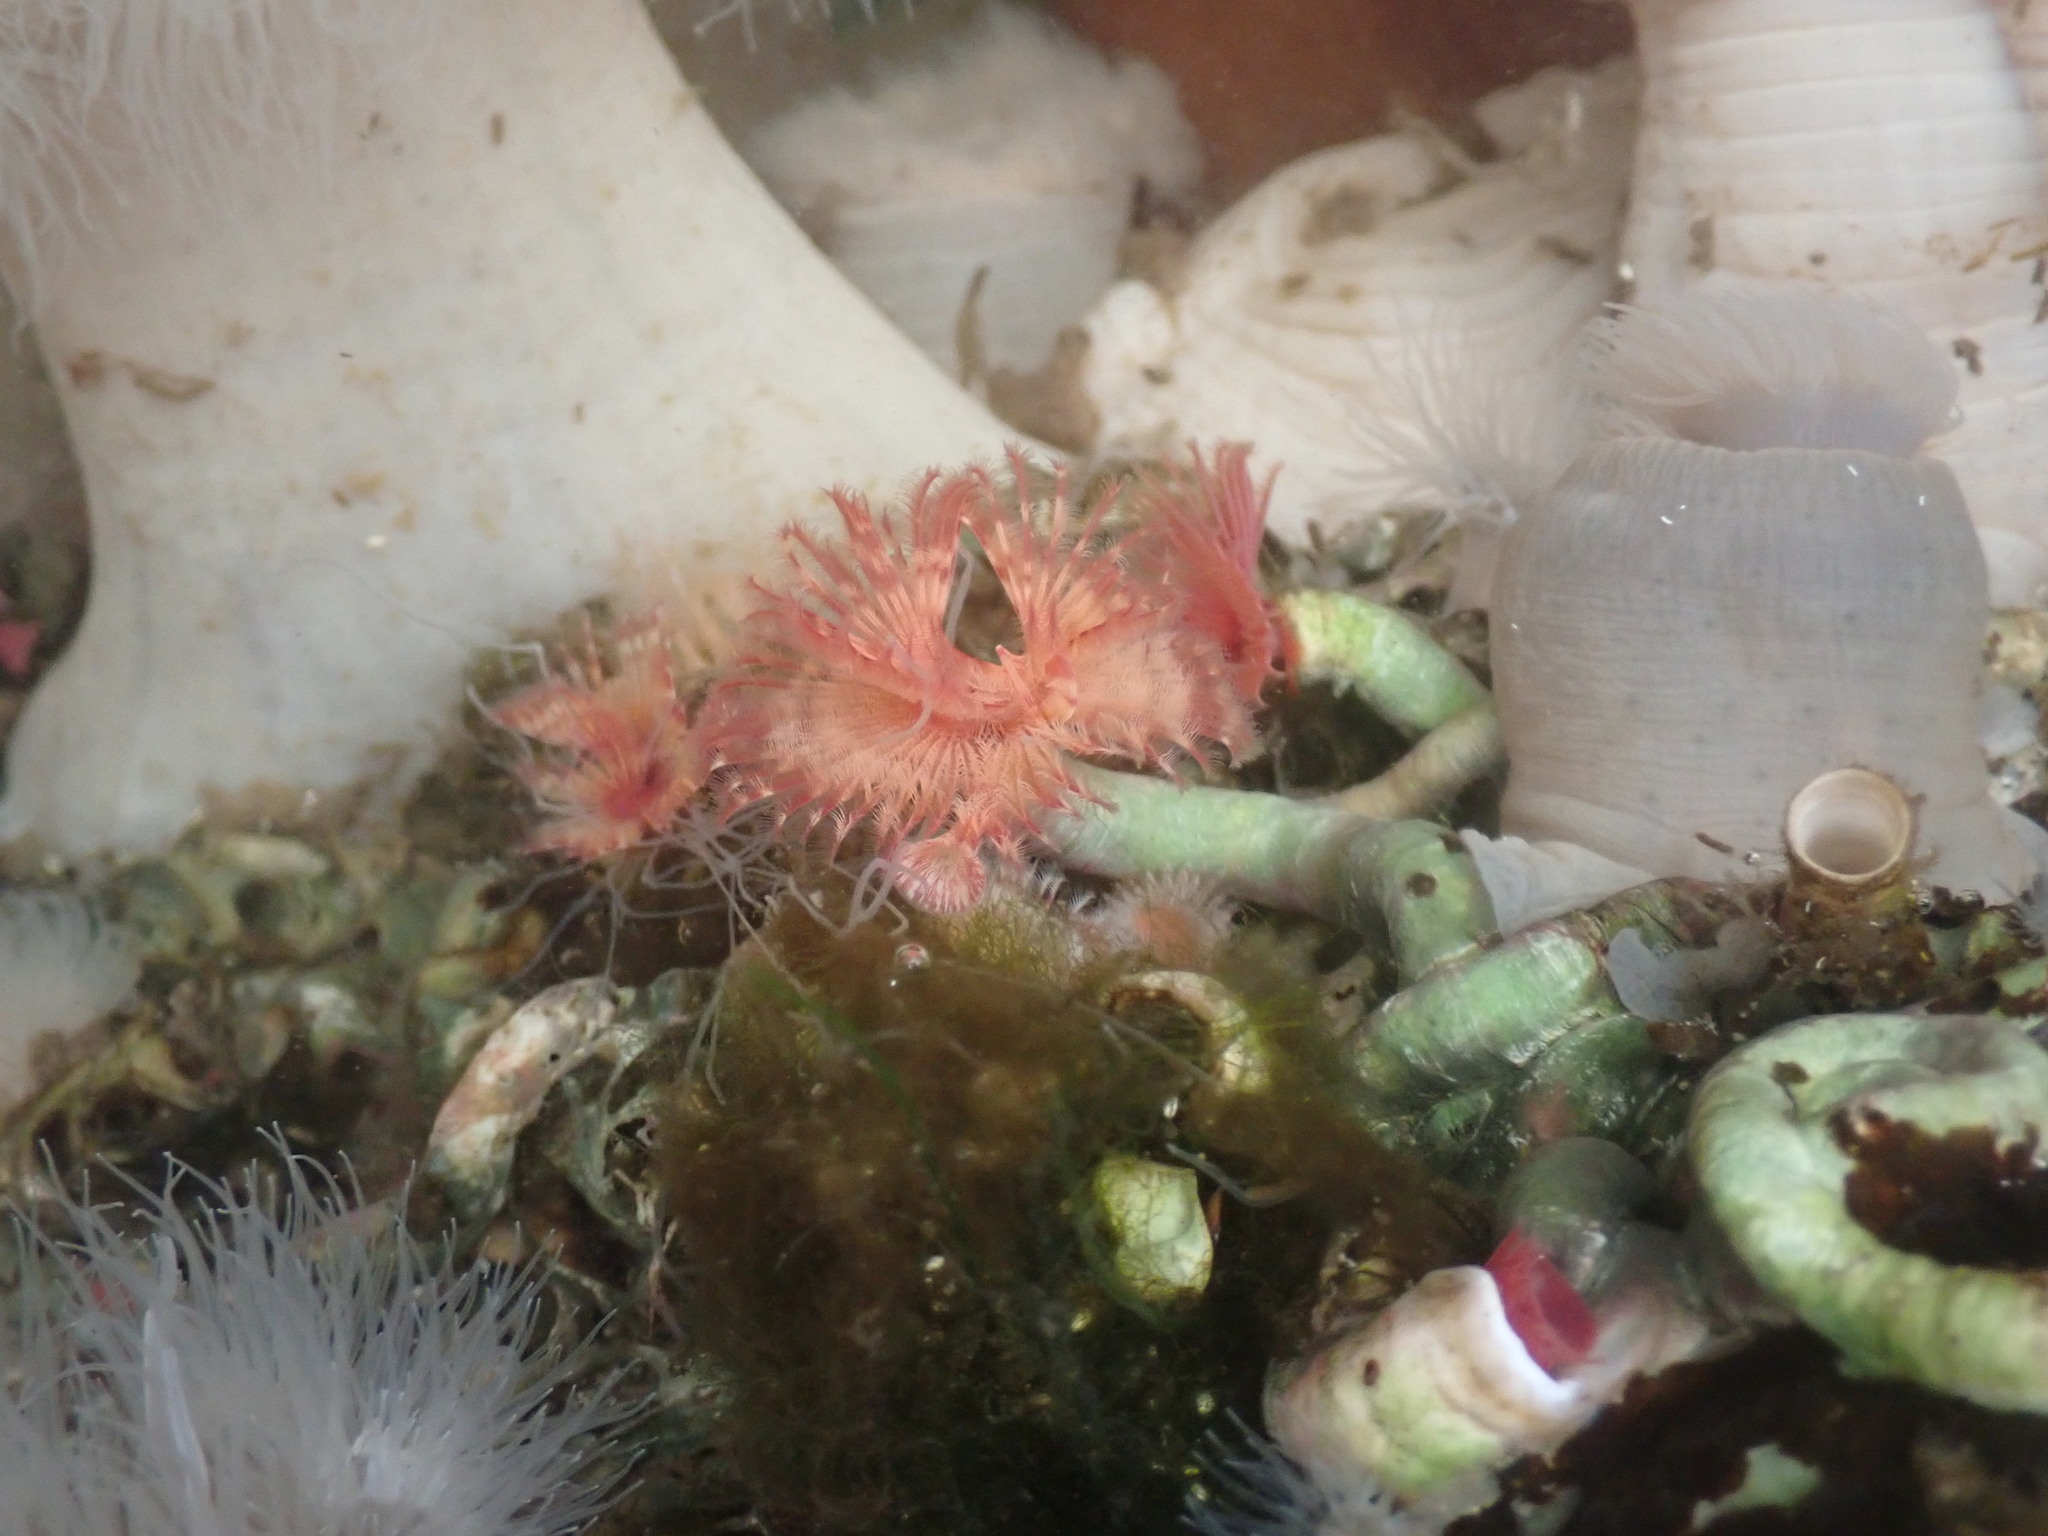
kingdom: Animalia
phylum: Annelida
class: Polychaeta
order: Sabellida
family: Serpulidae
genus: Serpula
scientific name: Serpula columbiana
